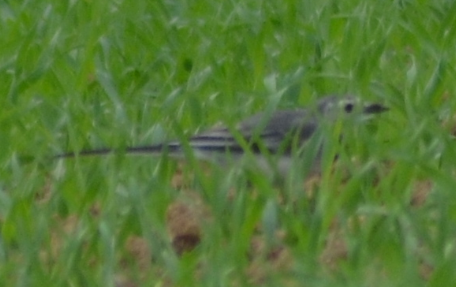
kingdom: Animalia
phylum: Chordata
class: Aves
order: Passeriformes
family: Motacillidae
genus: Motacilla
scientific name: Motacilla alba
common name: White wagtail
